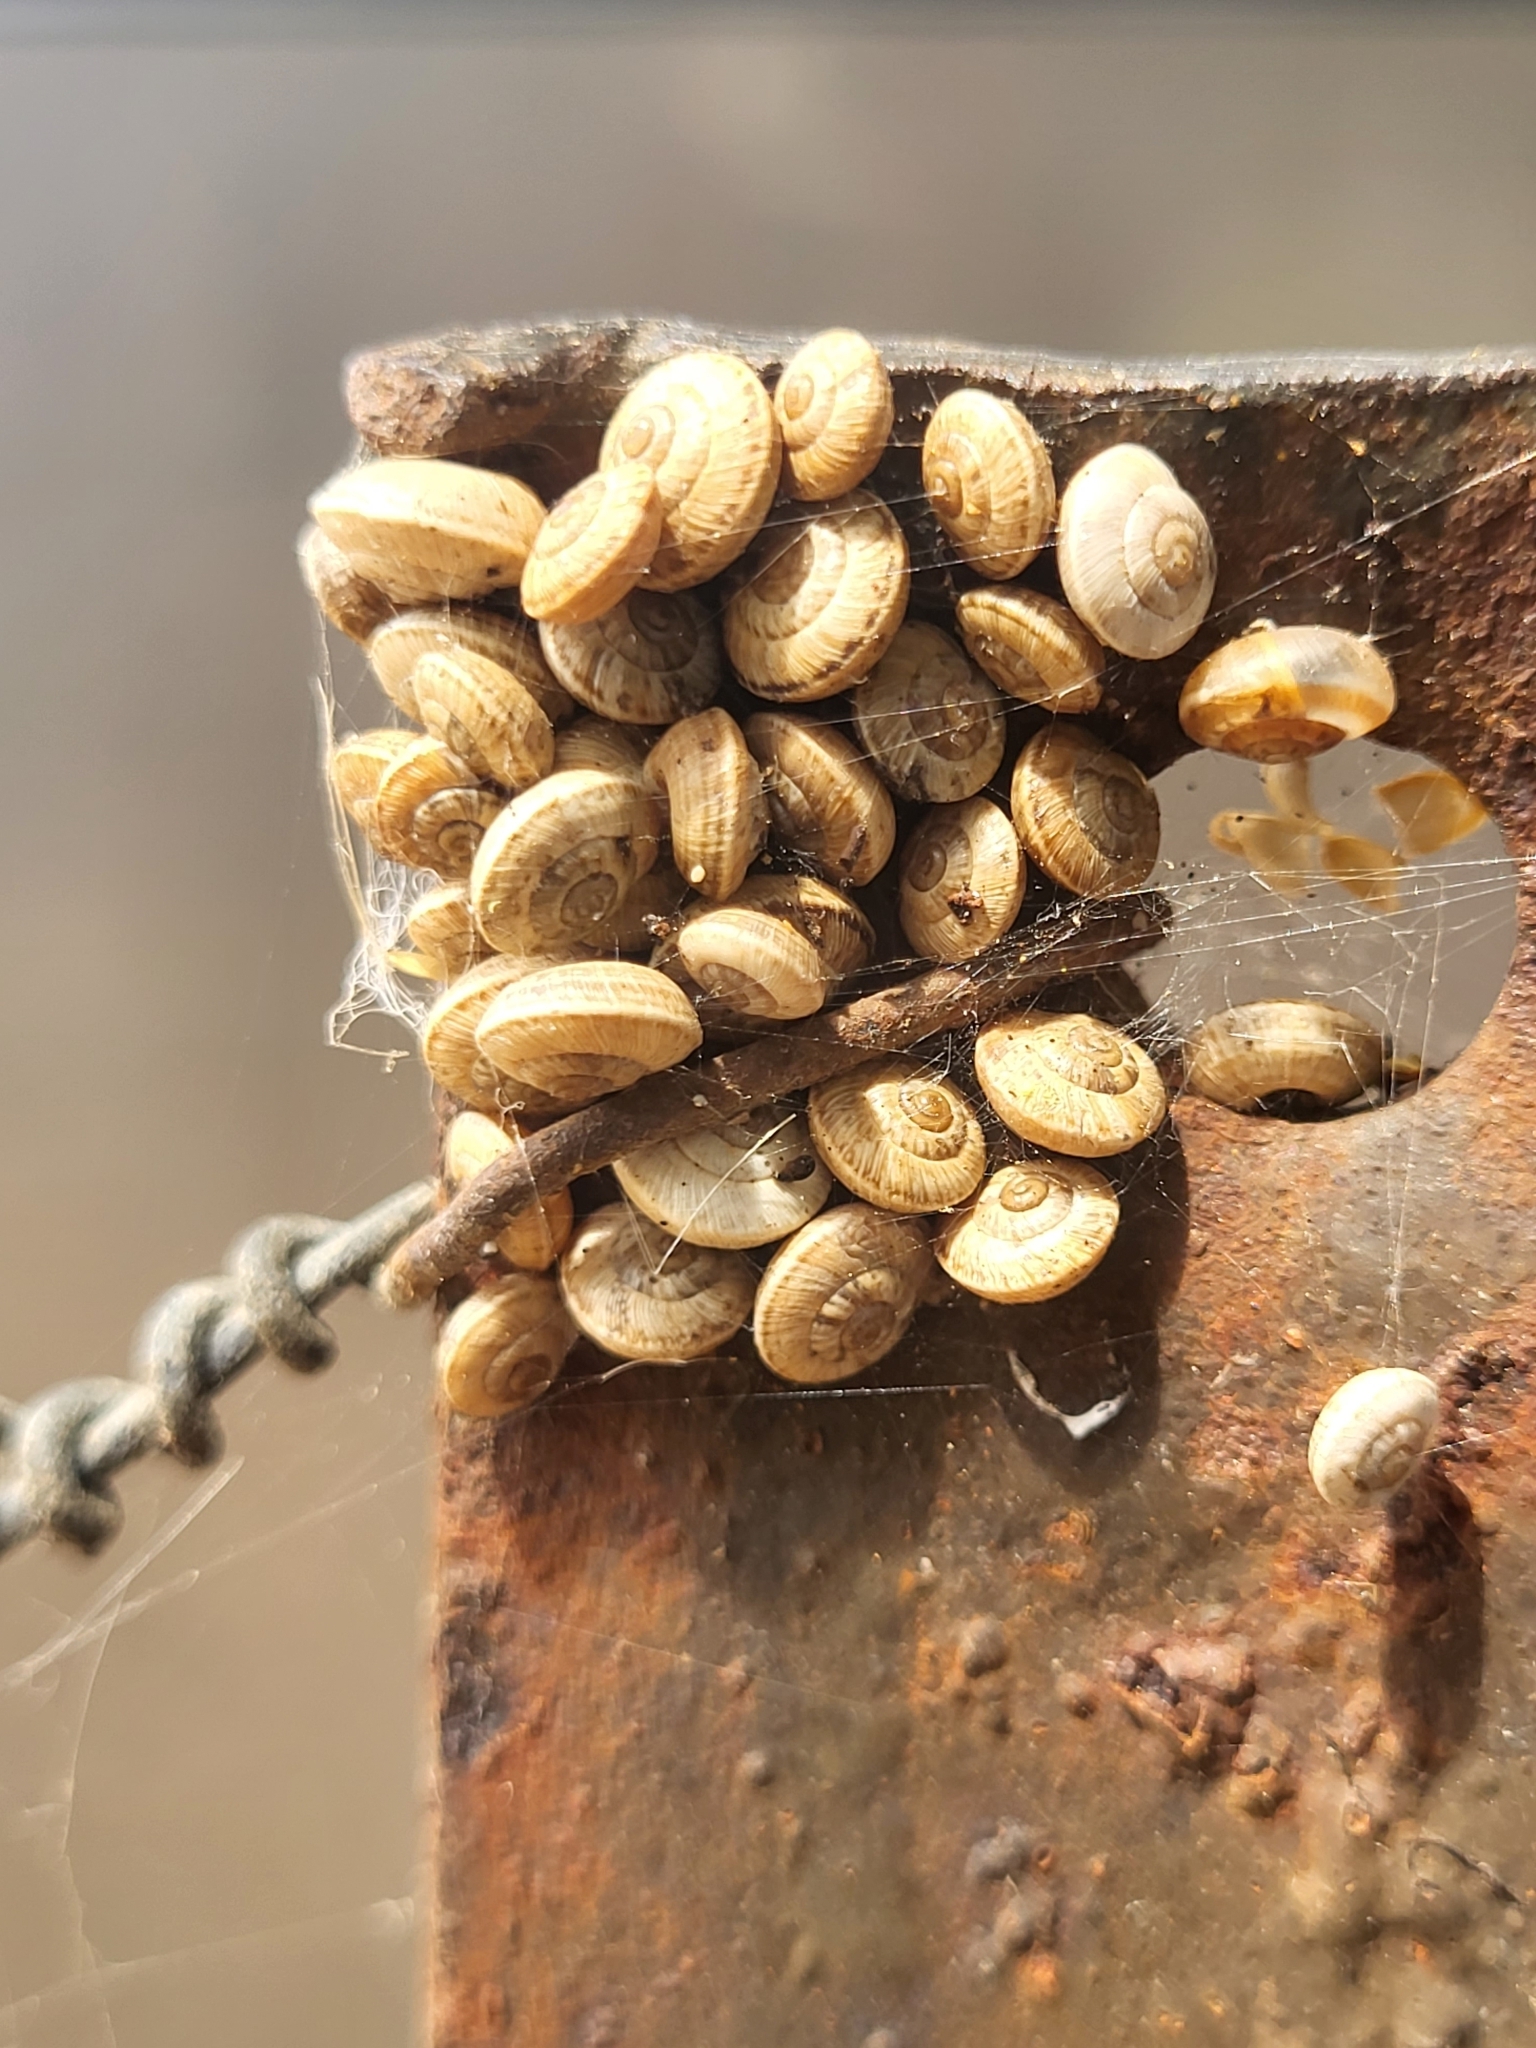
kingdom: Animalia
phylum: Mollusca
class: Gastropoda
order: Stylommatophora
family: Geomitridae
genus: Cernuella
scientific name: Cernuella virgata
